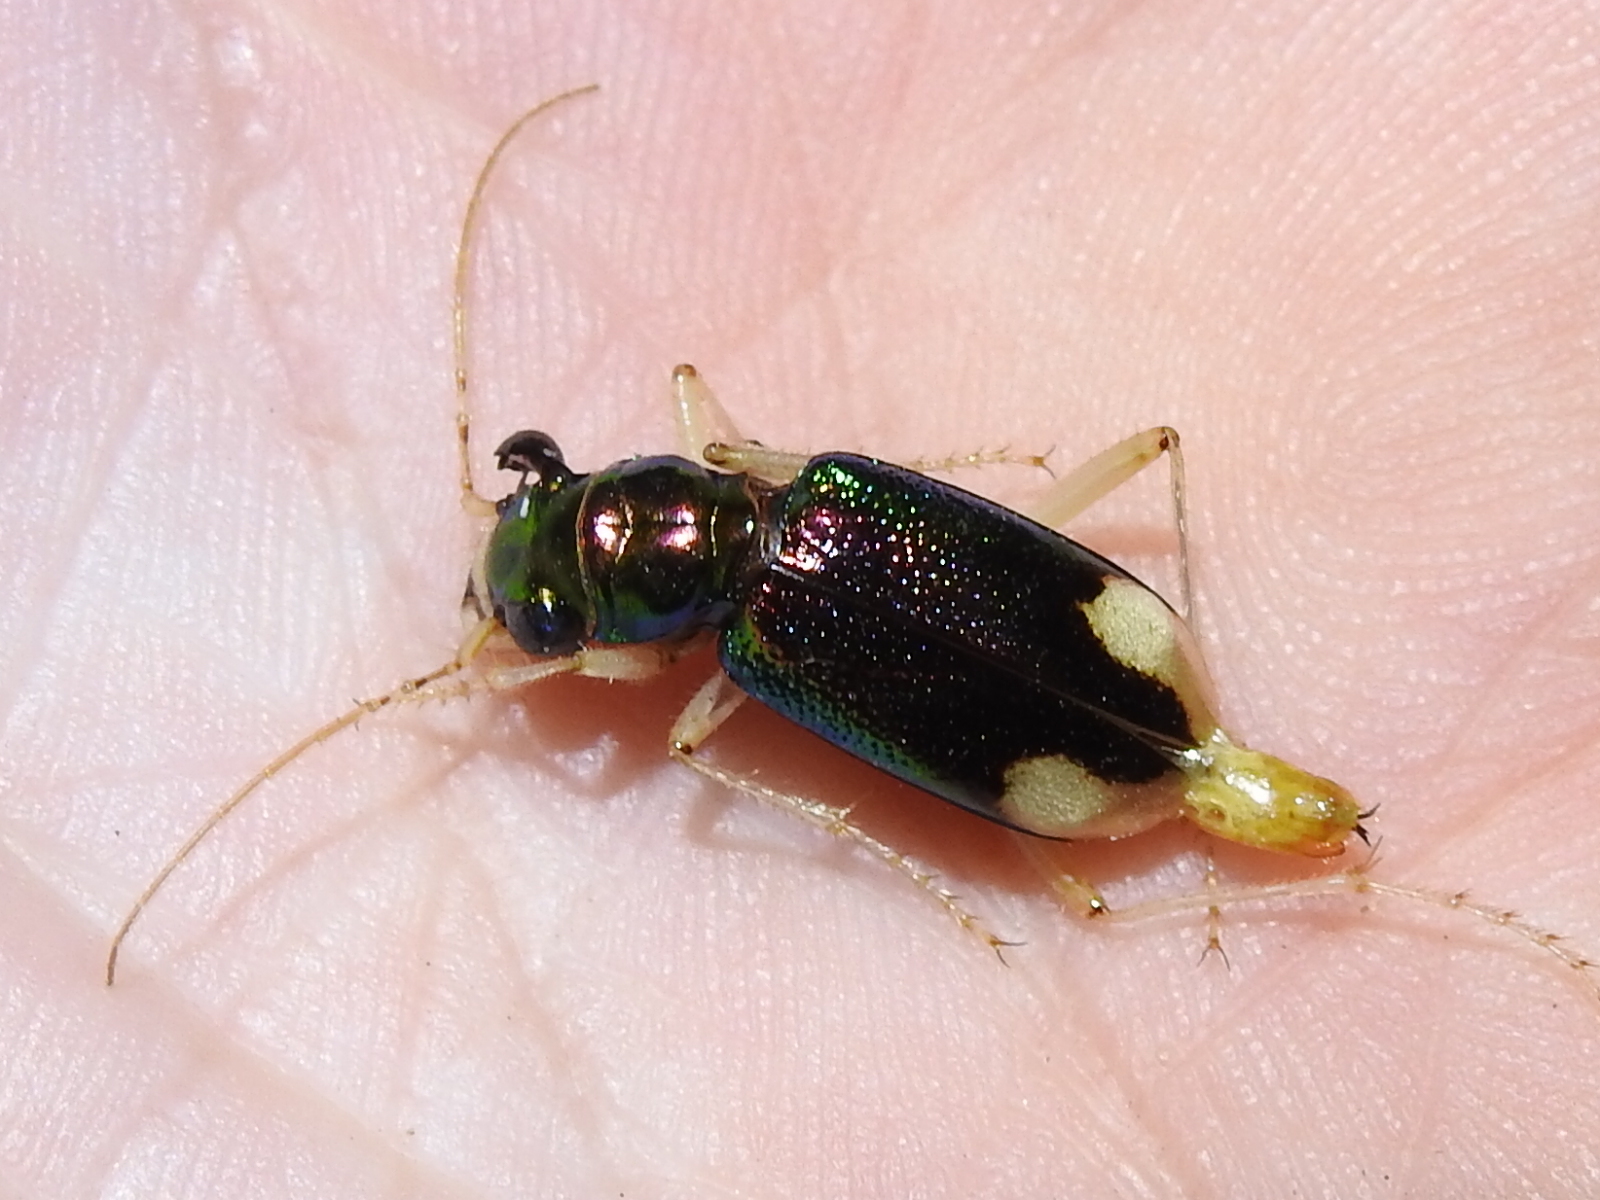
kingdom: Animalia
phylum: Arthropoda
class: Insecta
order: Coleoptera
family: Carabidae
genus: Tetracha
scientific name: Tetracha carolina
